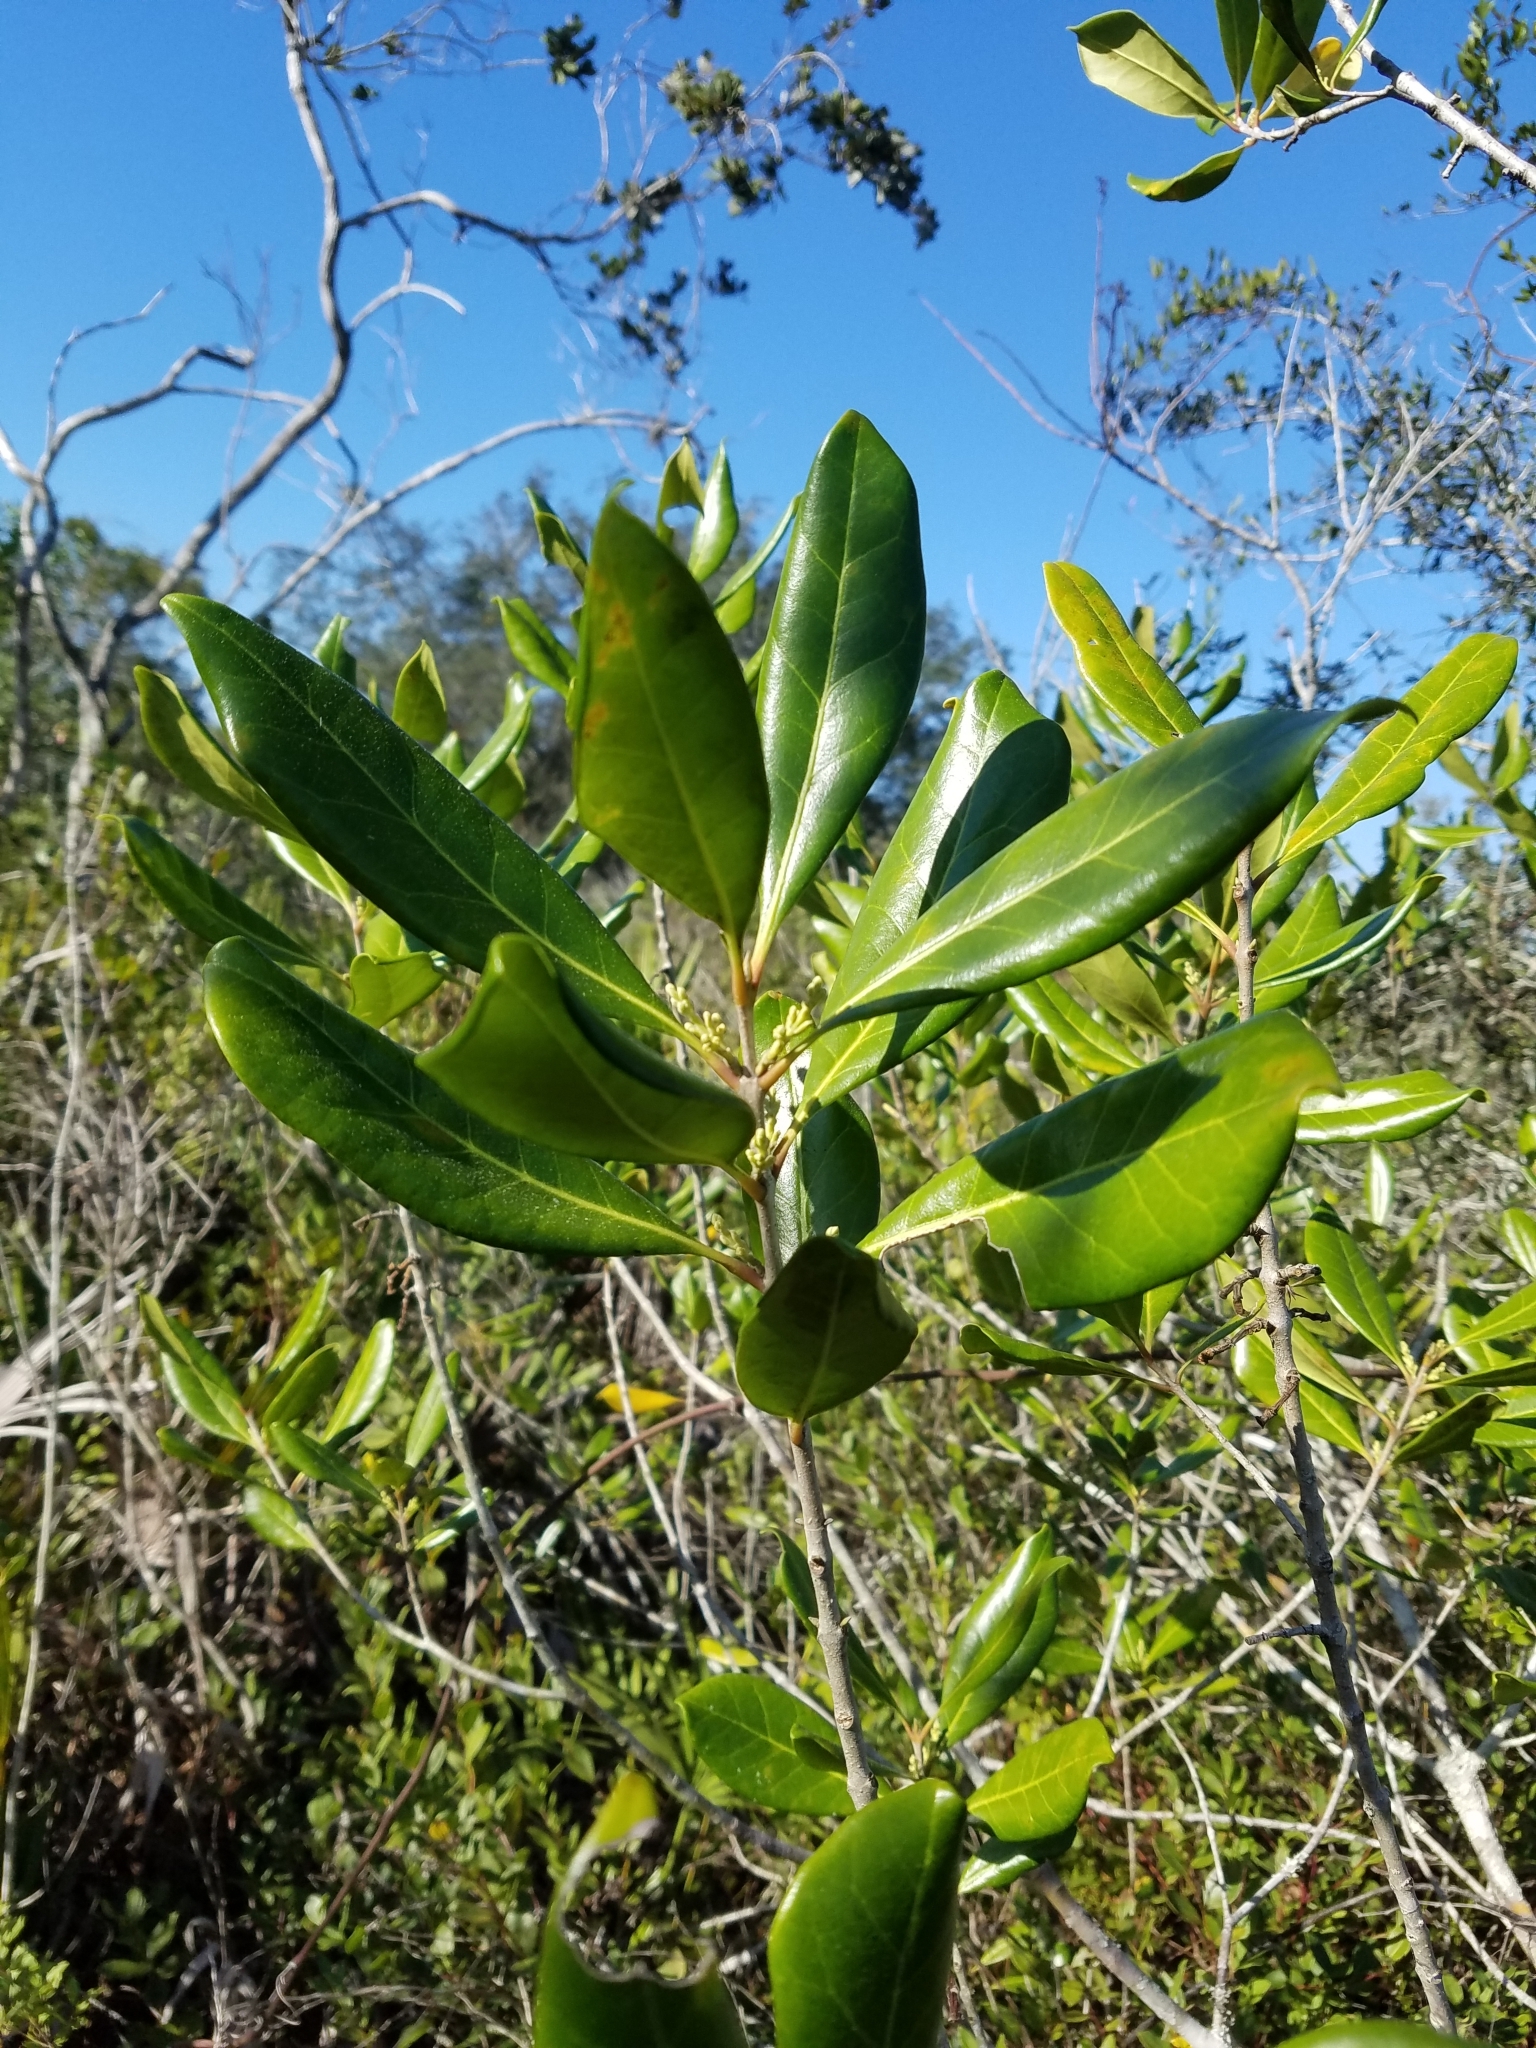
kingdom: Plantae
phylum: Tracheophyta
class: Magnoliopsida
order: Lamiales
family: Oleaceae
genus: Cartrema
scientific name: Cartrema floridana
